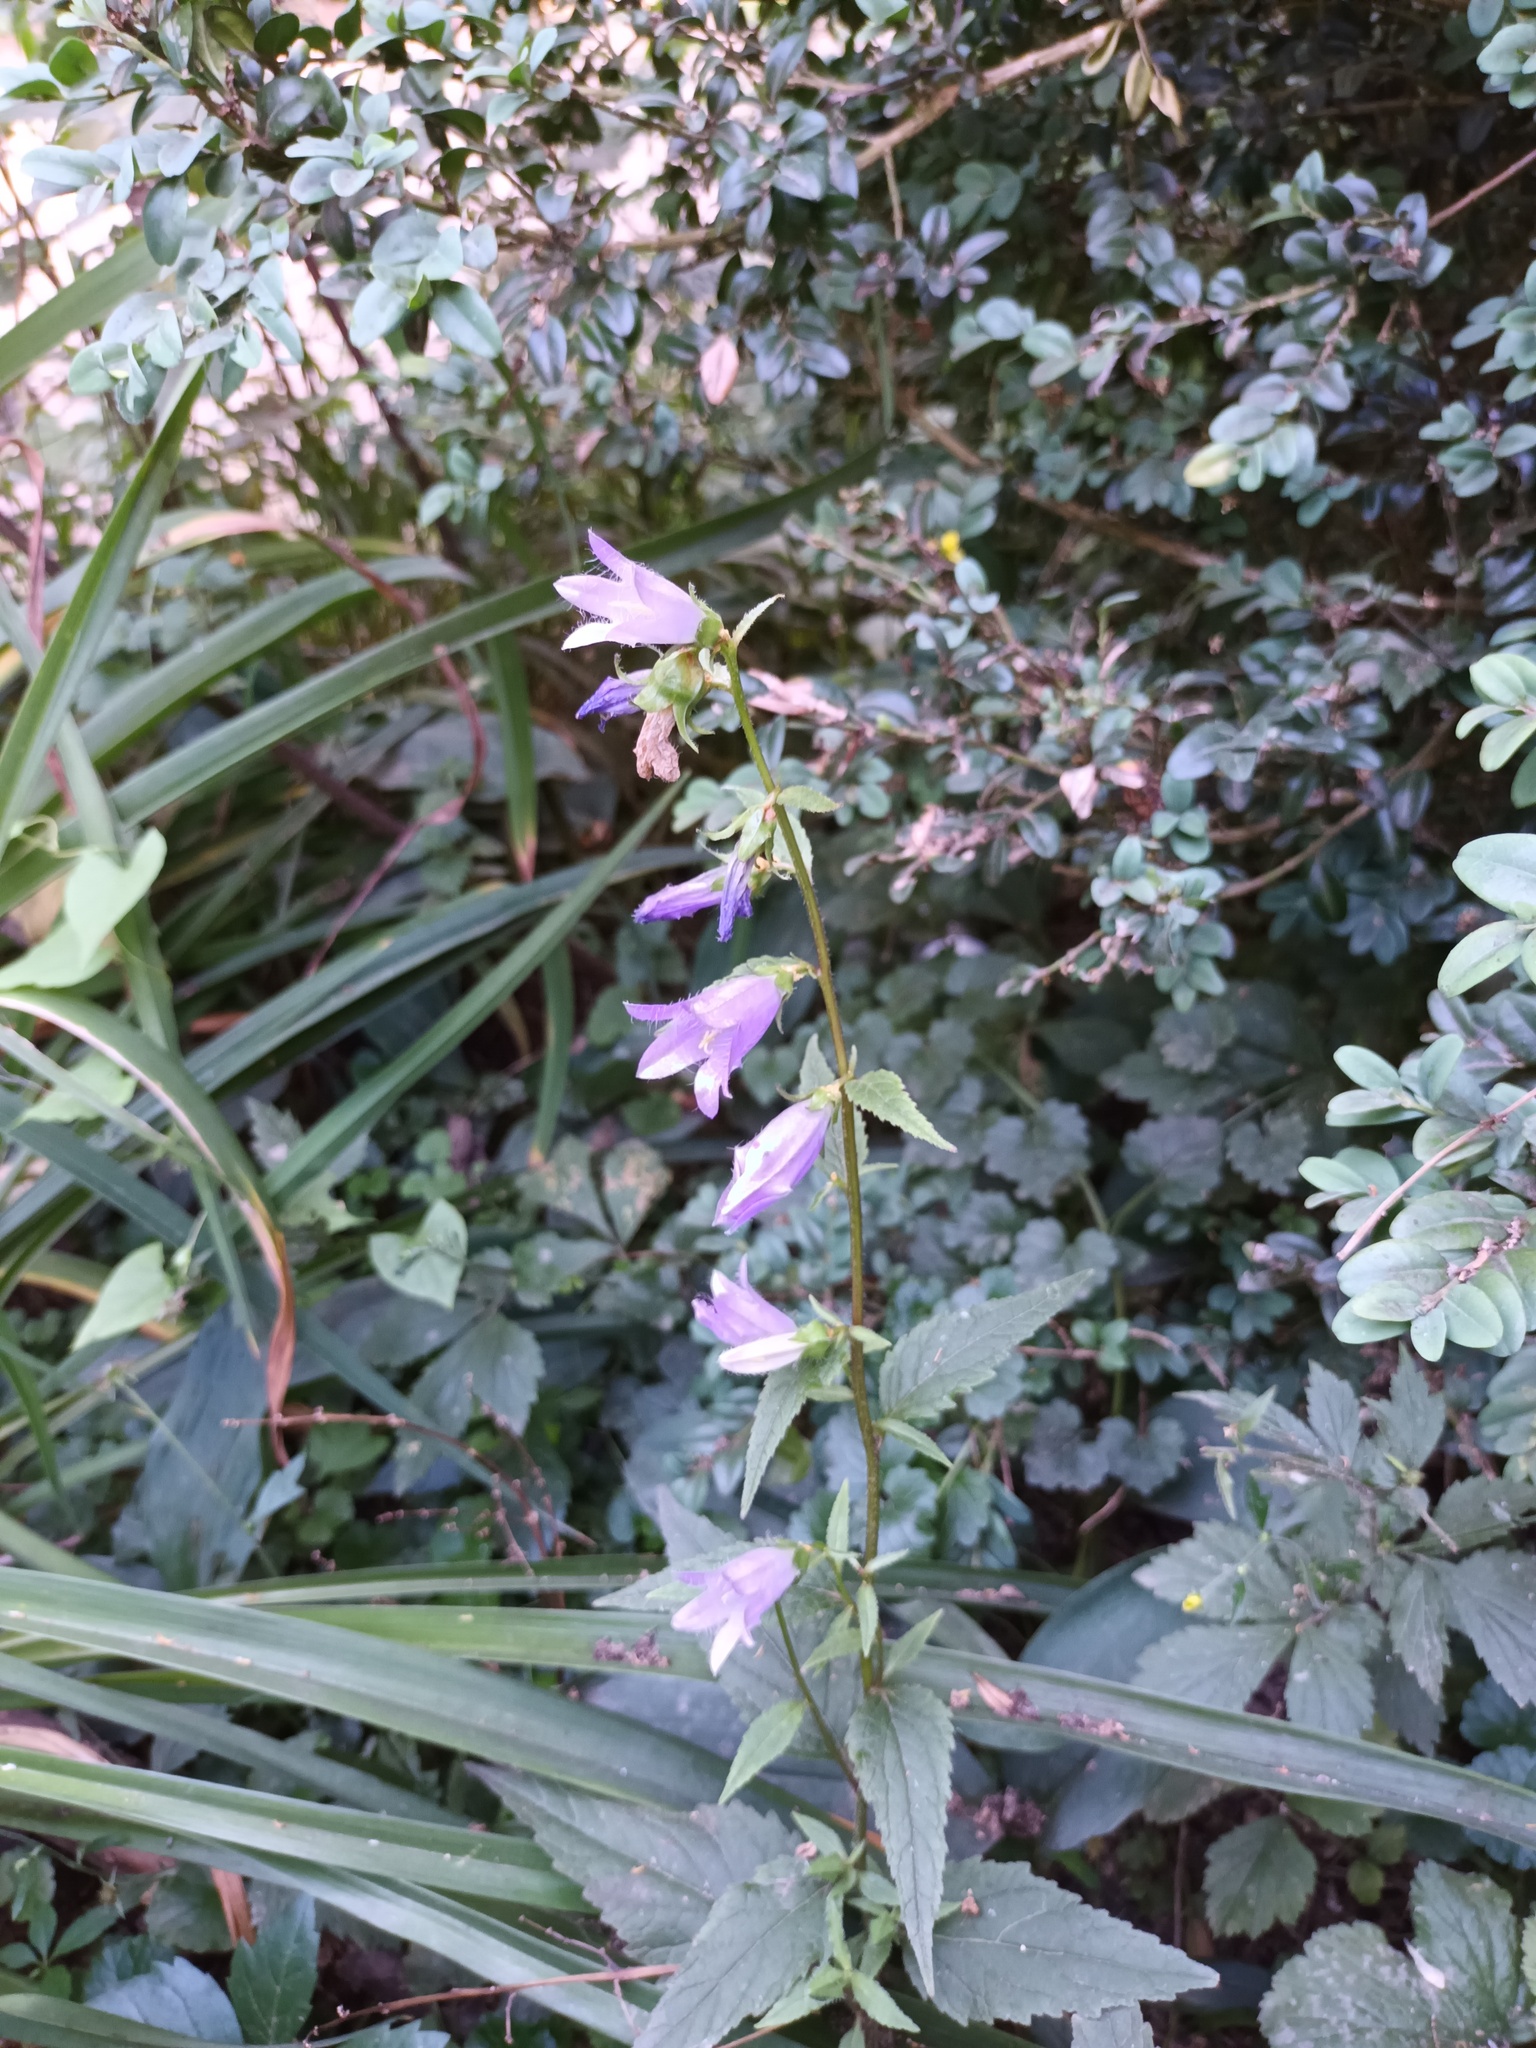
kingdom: Plantae
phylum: Tracheophyta
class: Magnoliopsida
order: Asterales
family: Campanulaceae
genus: Campanula
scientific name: Campanula trachelium
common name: Nettle-leaved bellflower
